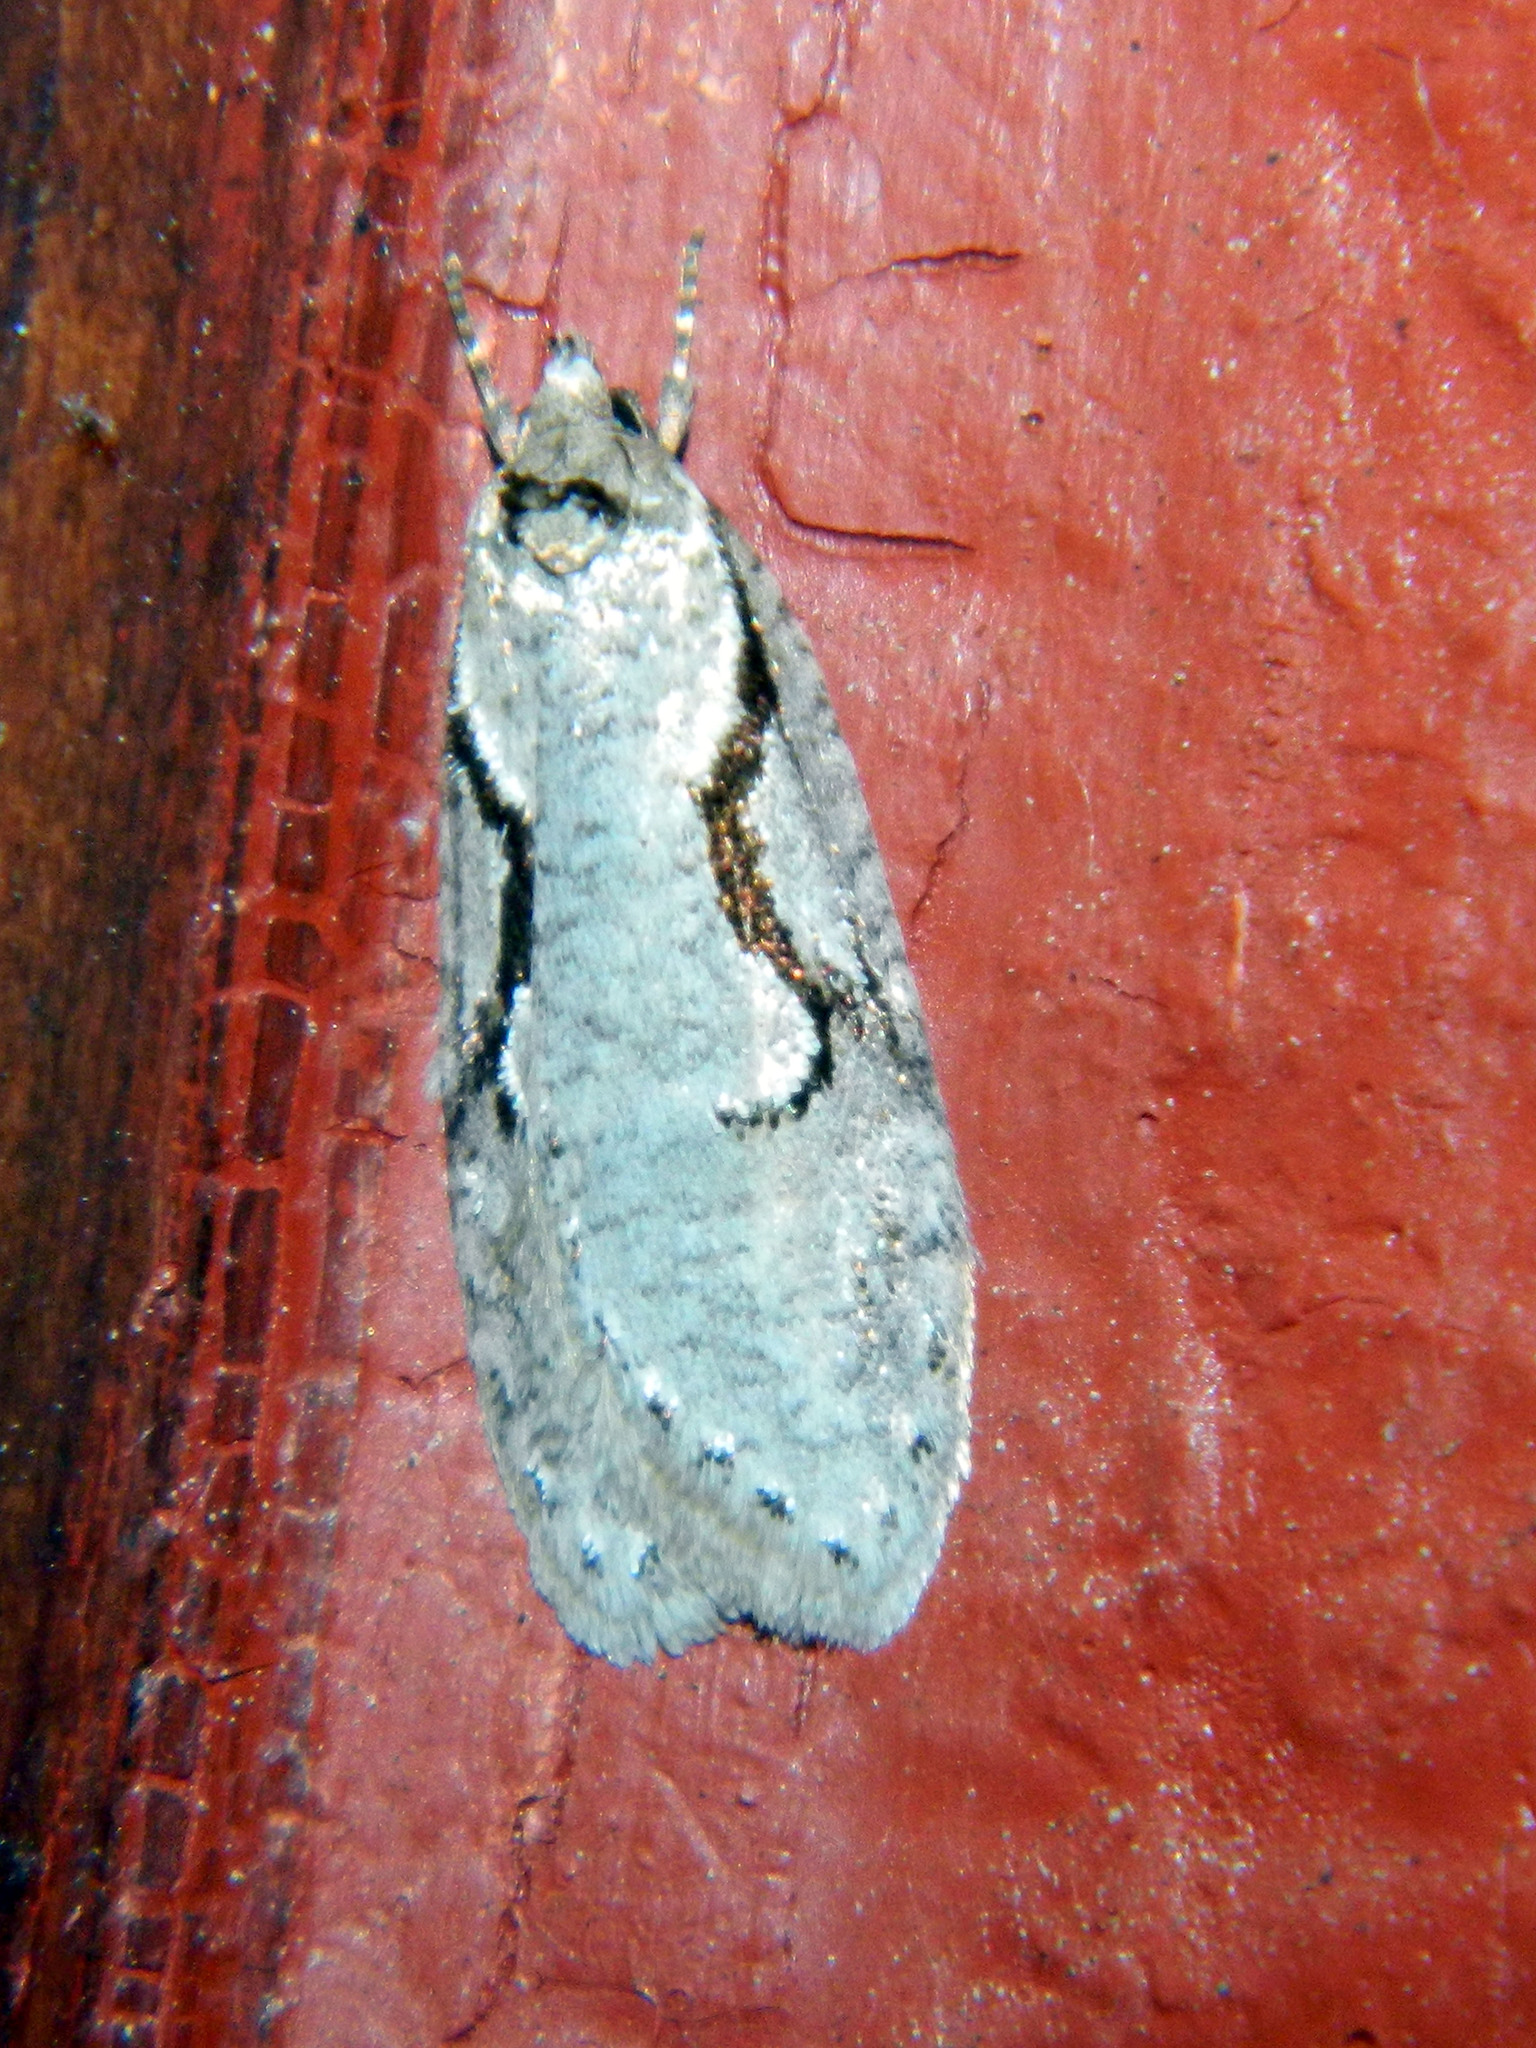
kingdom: Animalia
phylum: Arthropoda
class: Insecta
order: Lepidoptera
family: Depressariidae
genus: Semioscopis
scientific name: Semioscopis packardella
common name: Packard's concealer moth
